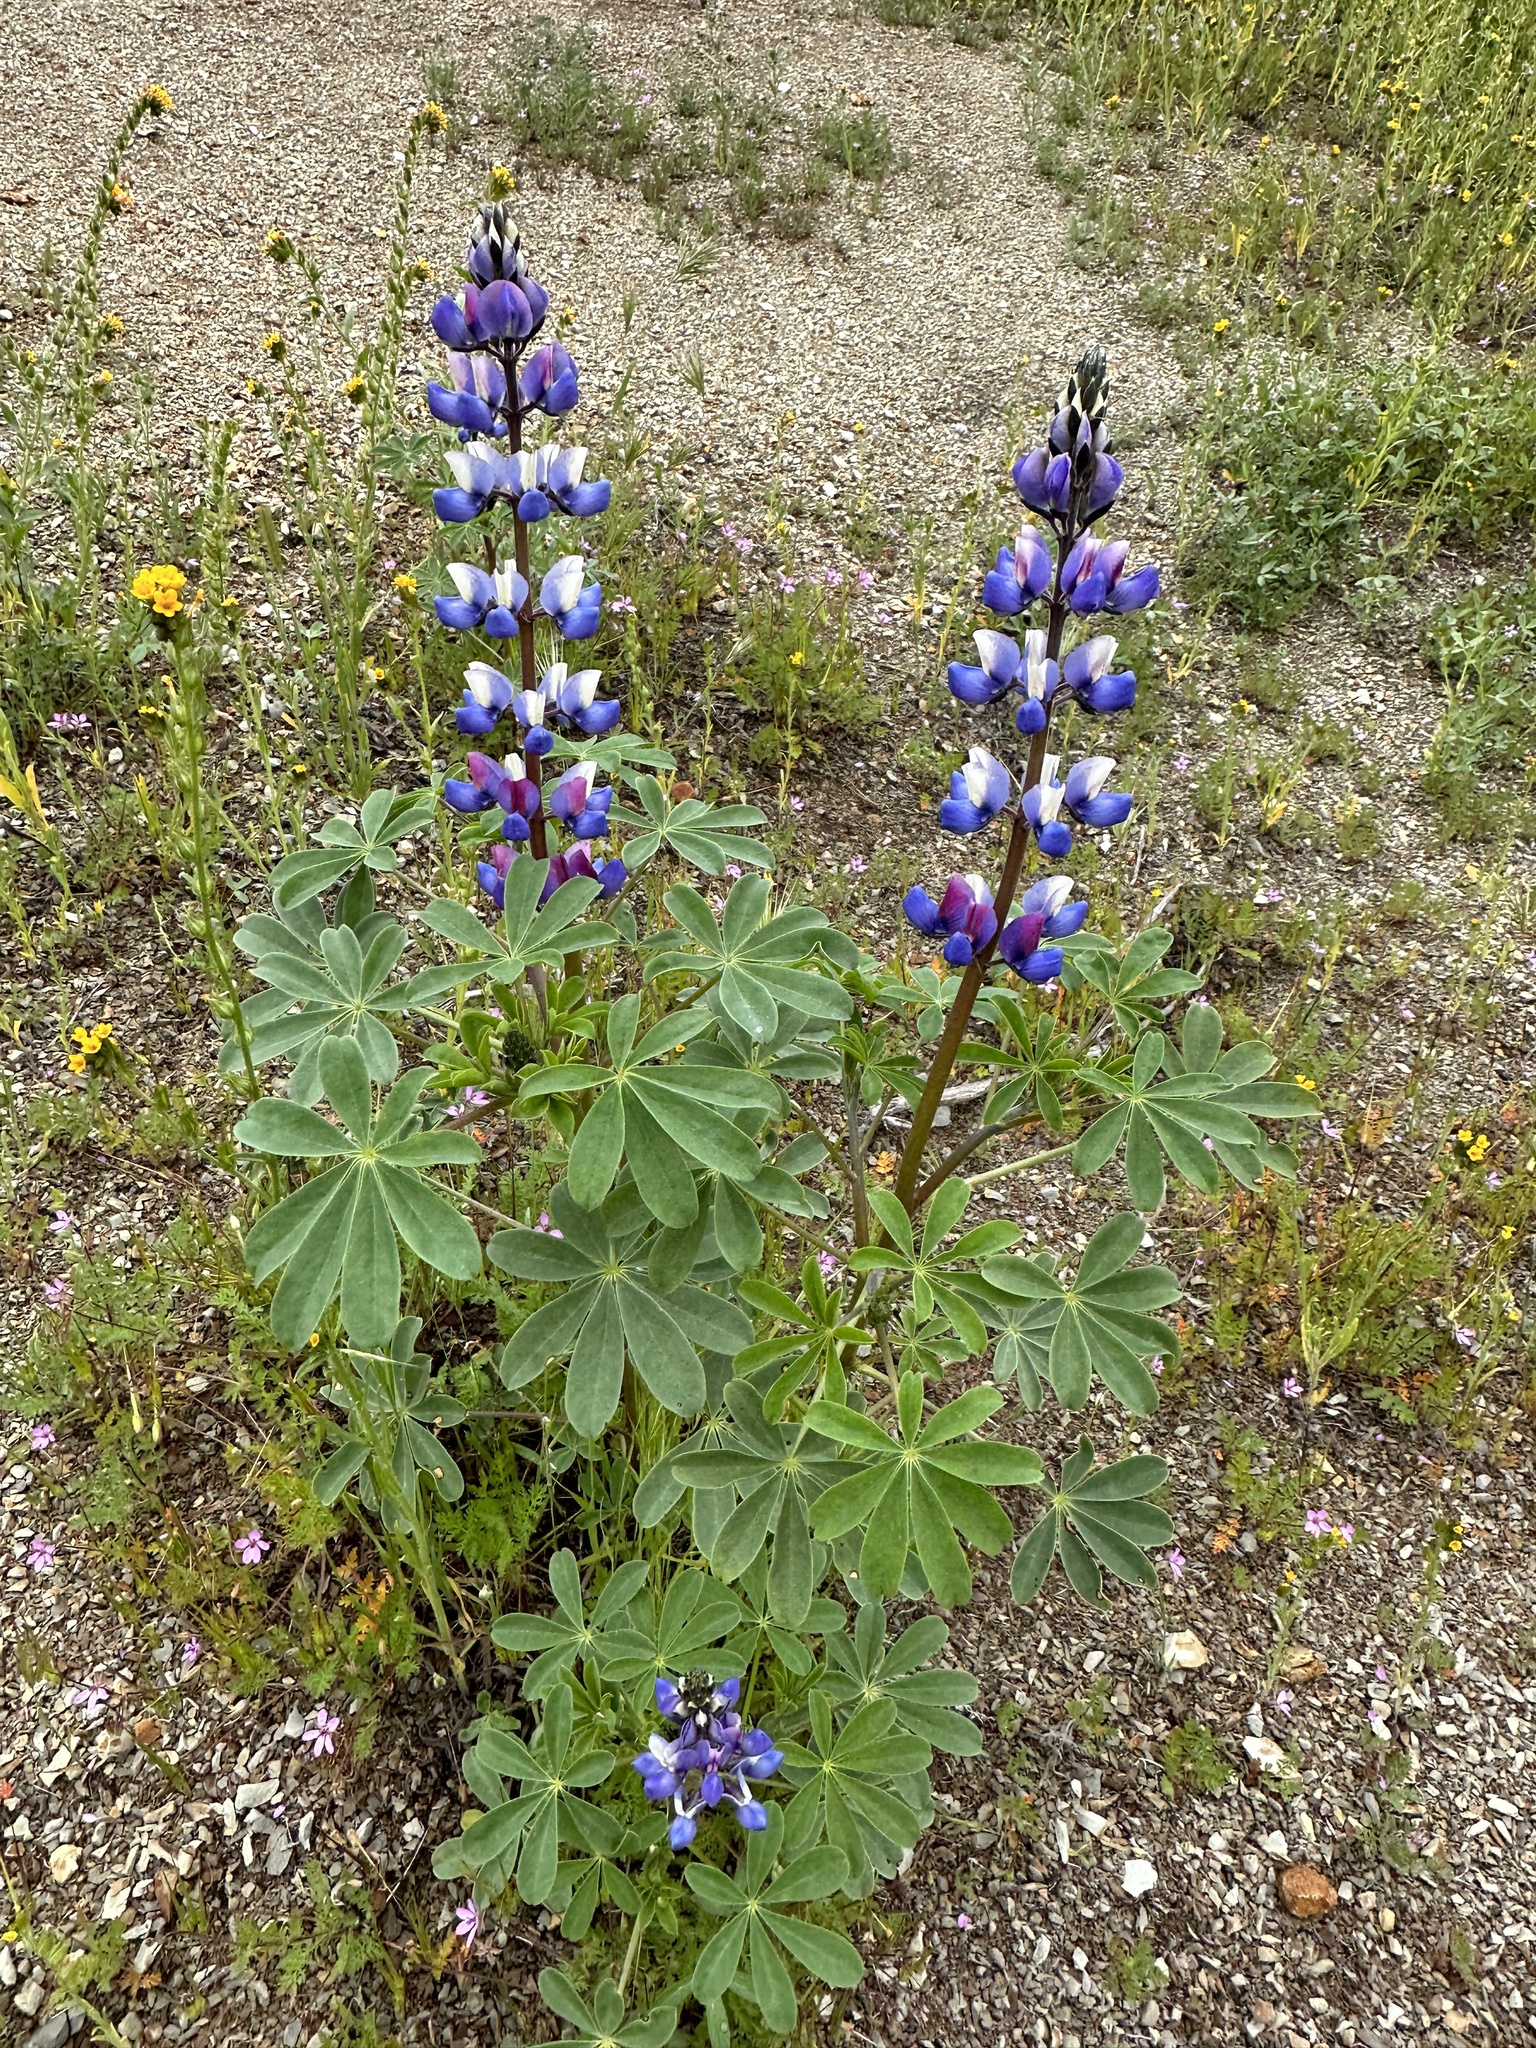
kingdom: Plantae
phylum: Tracheophyta
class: Magnoliopsida
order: Fabales
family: Fabaceae
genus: Lupinus
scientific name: Lupinus succulentus
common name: Arroyo lupine
